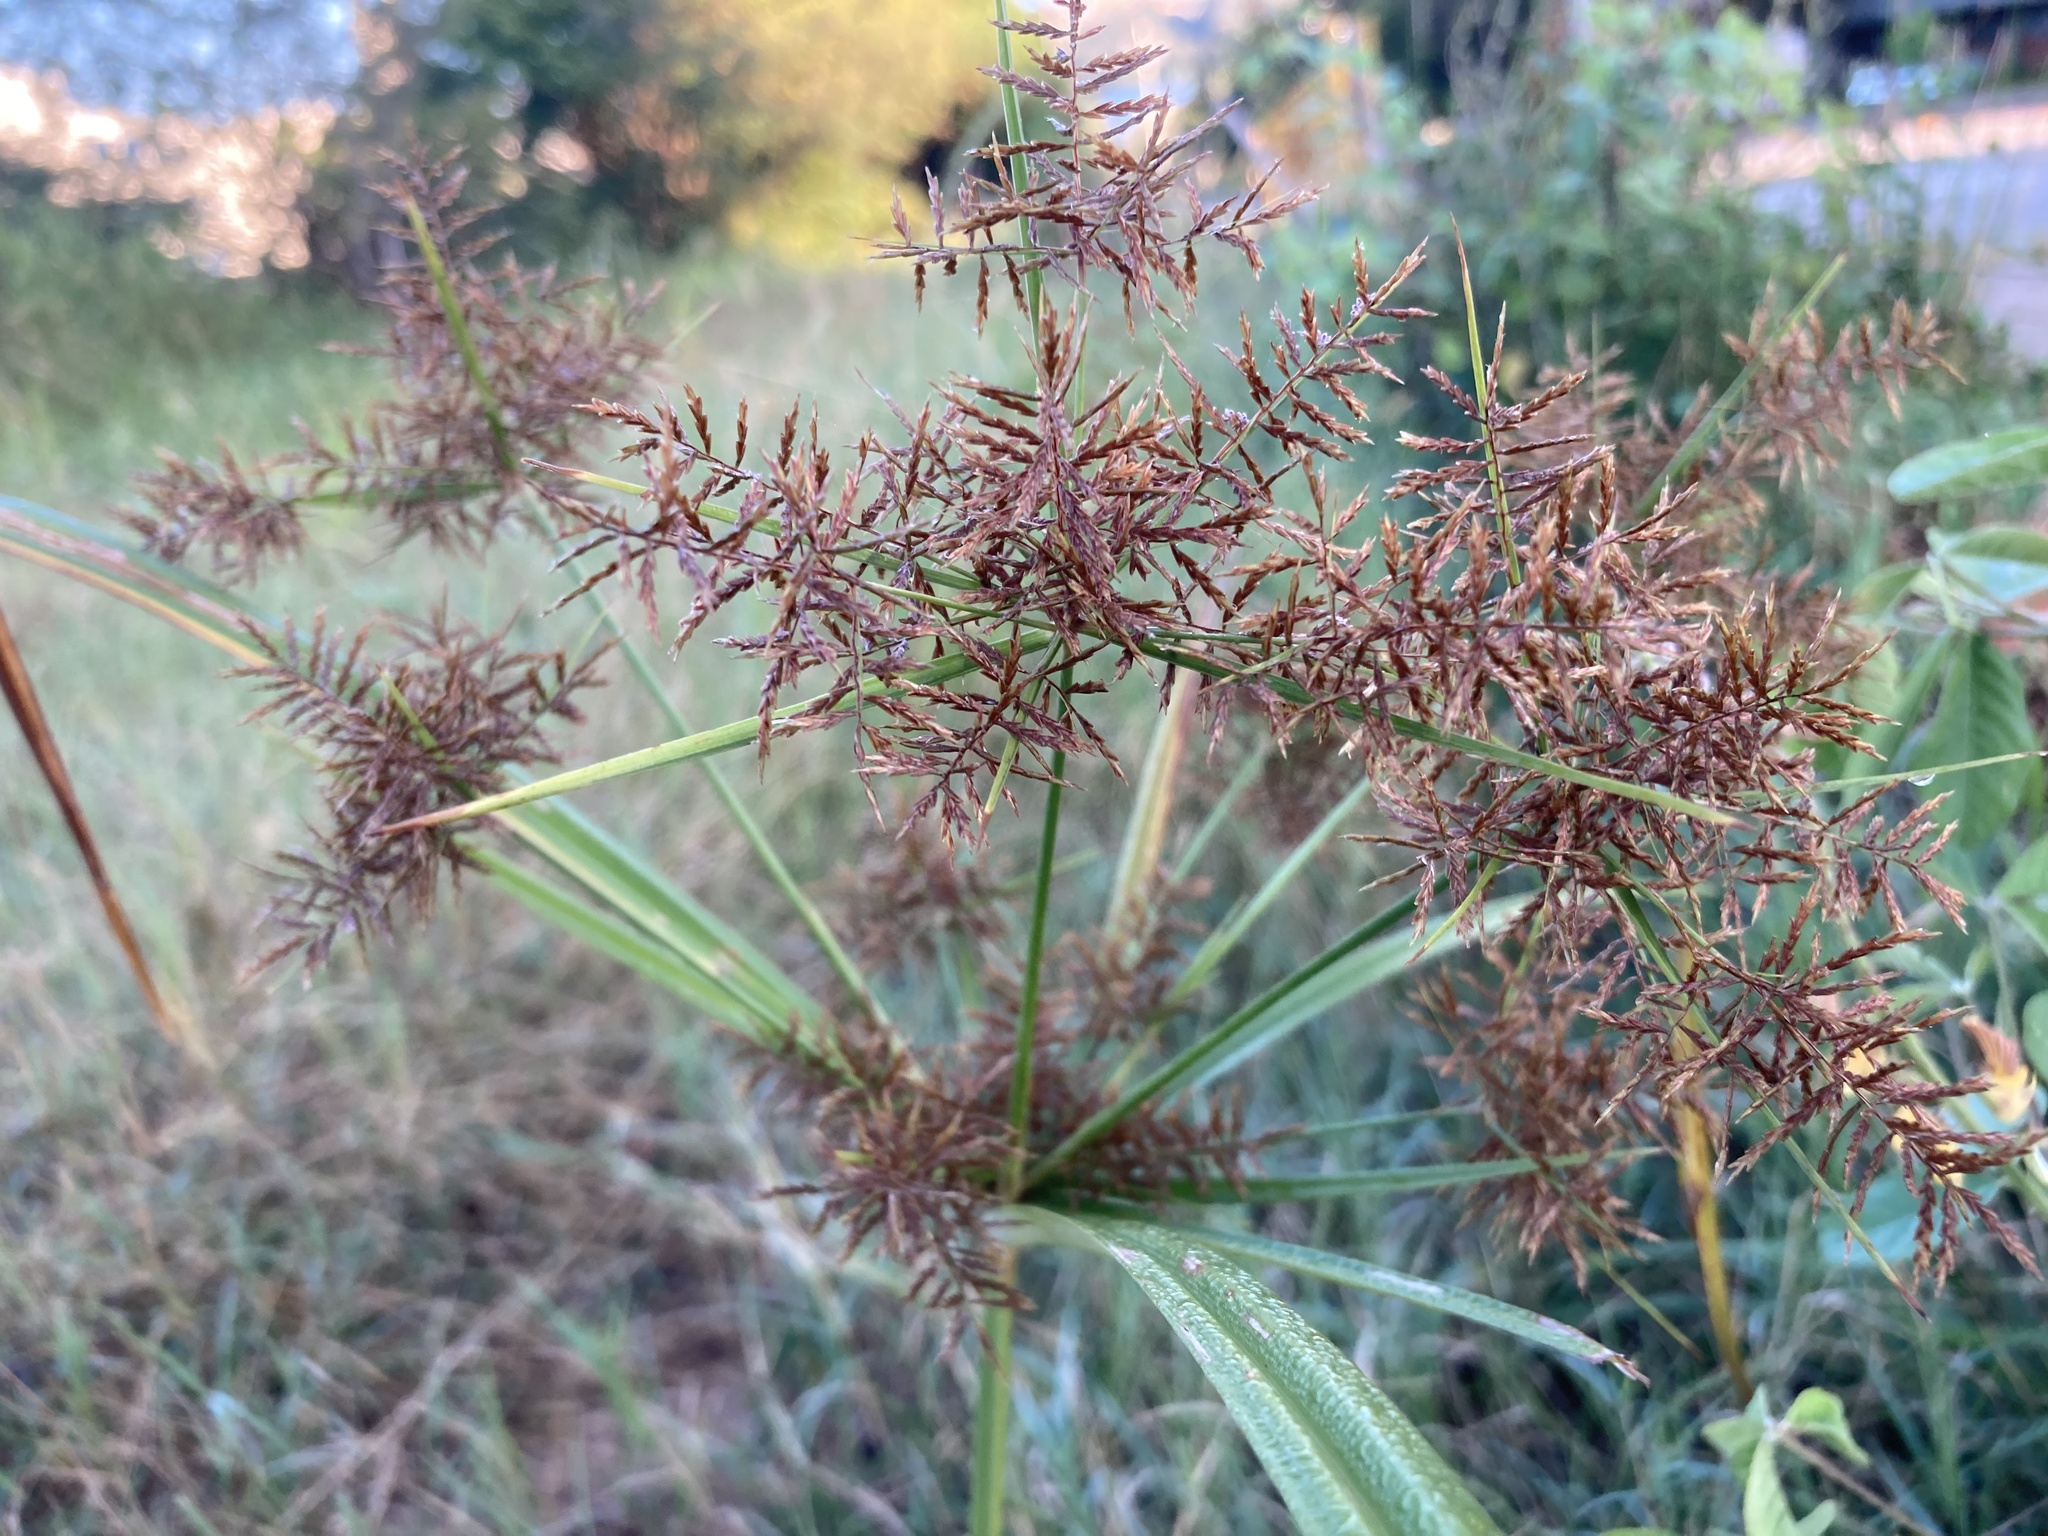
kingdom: Plantae
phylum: Tracheophyta
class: Liliopsida
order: Poales
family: Cyperaceae
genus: Cyperus
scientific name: Cyperus distans
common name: Slender cyperus
